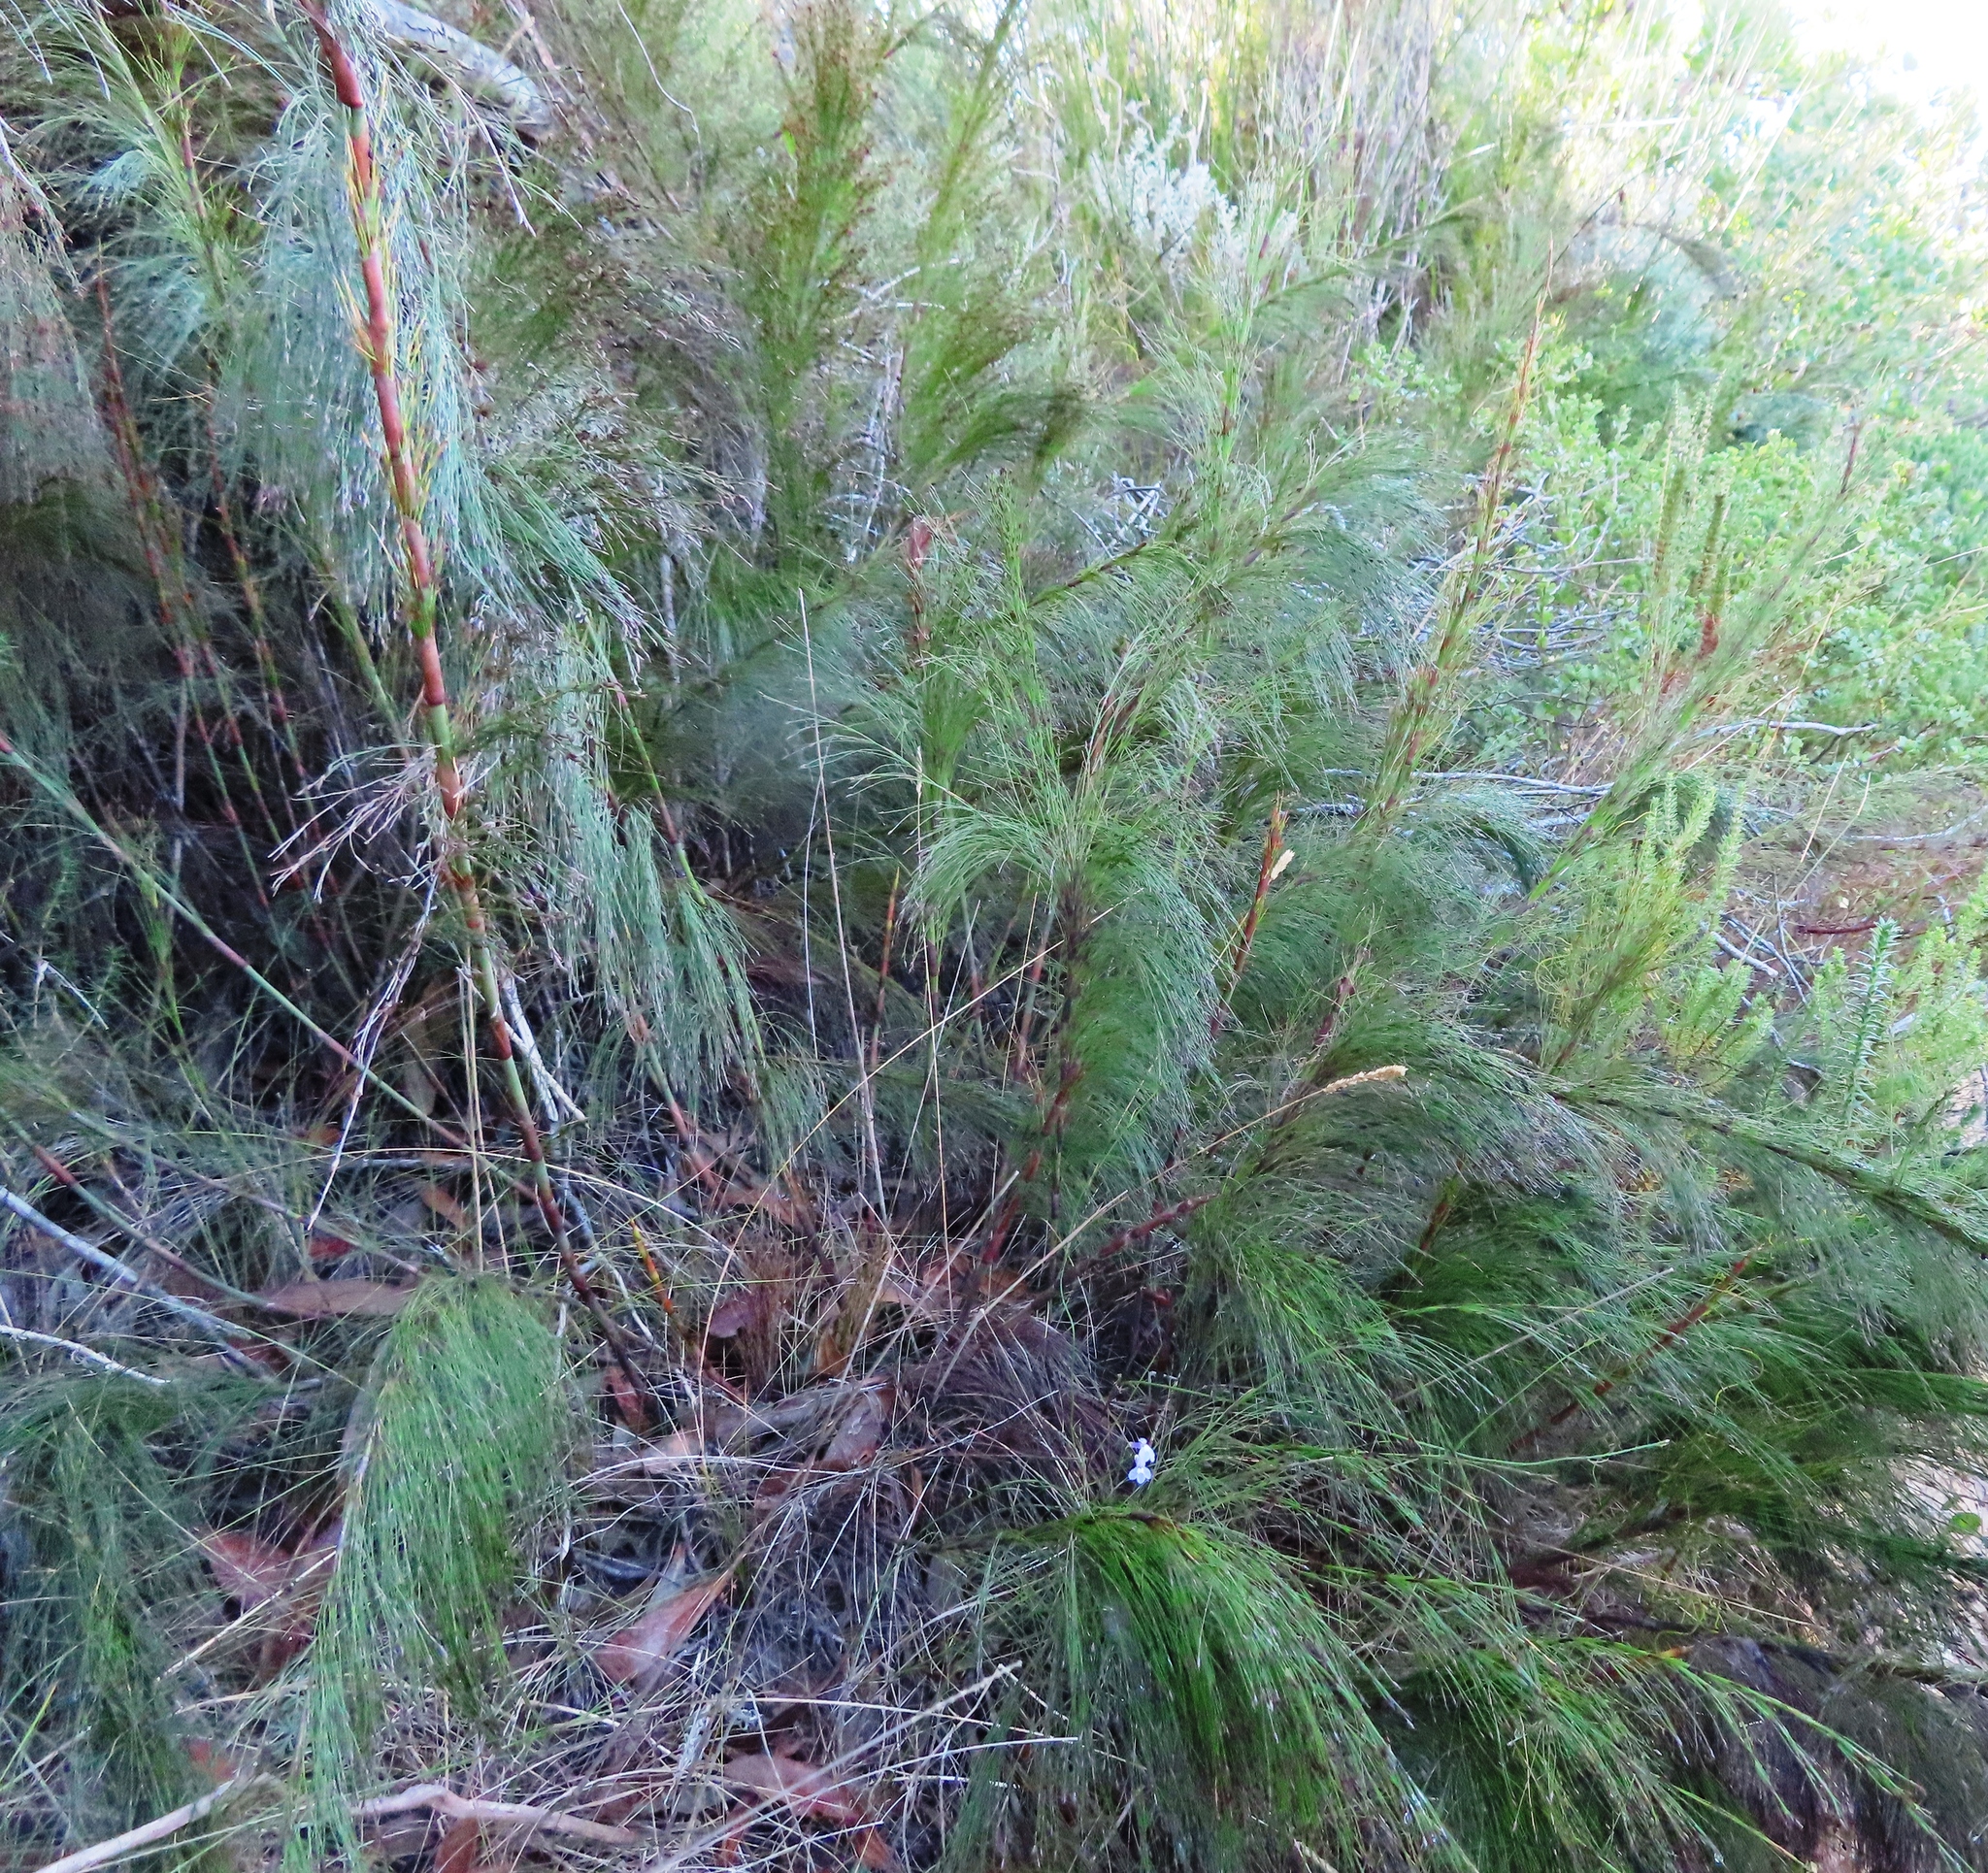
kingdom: Plantae
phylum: Tracheophyta
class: Liliopsida
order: Poales
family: Restionaceae
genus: Restio
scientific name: Restio leptoclados
